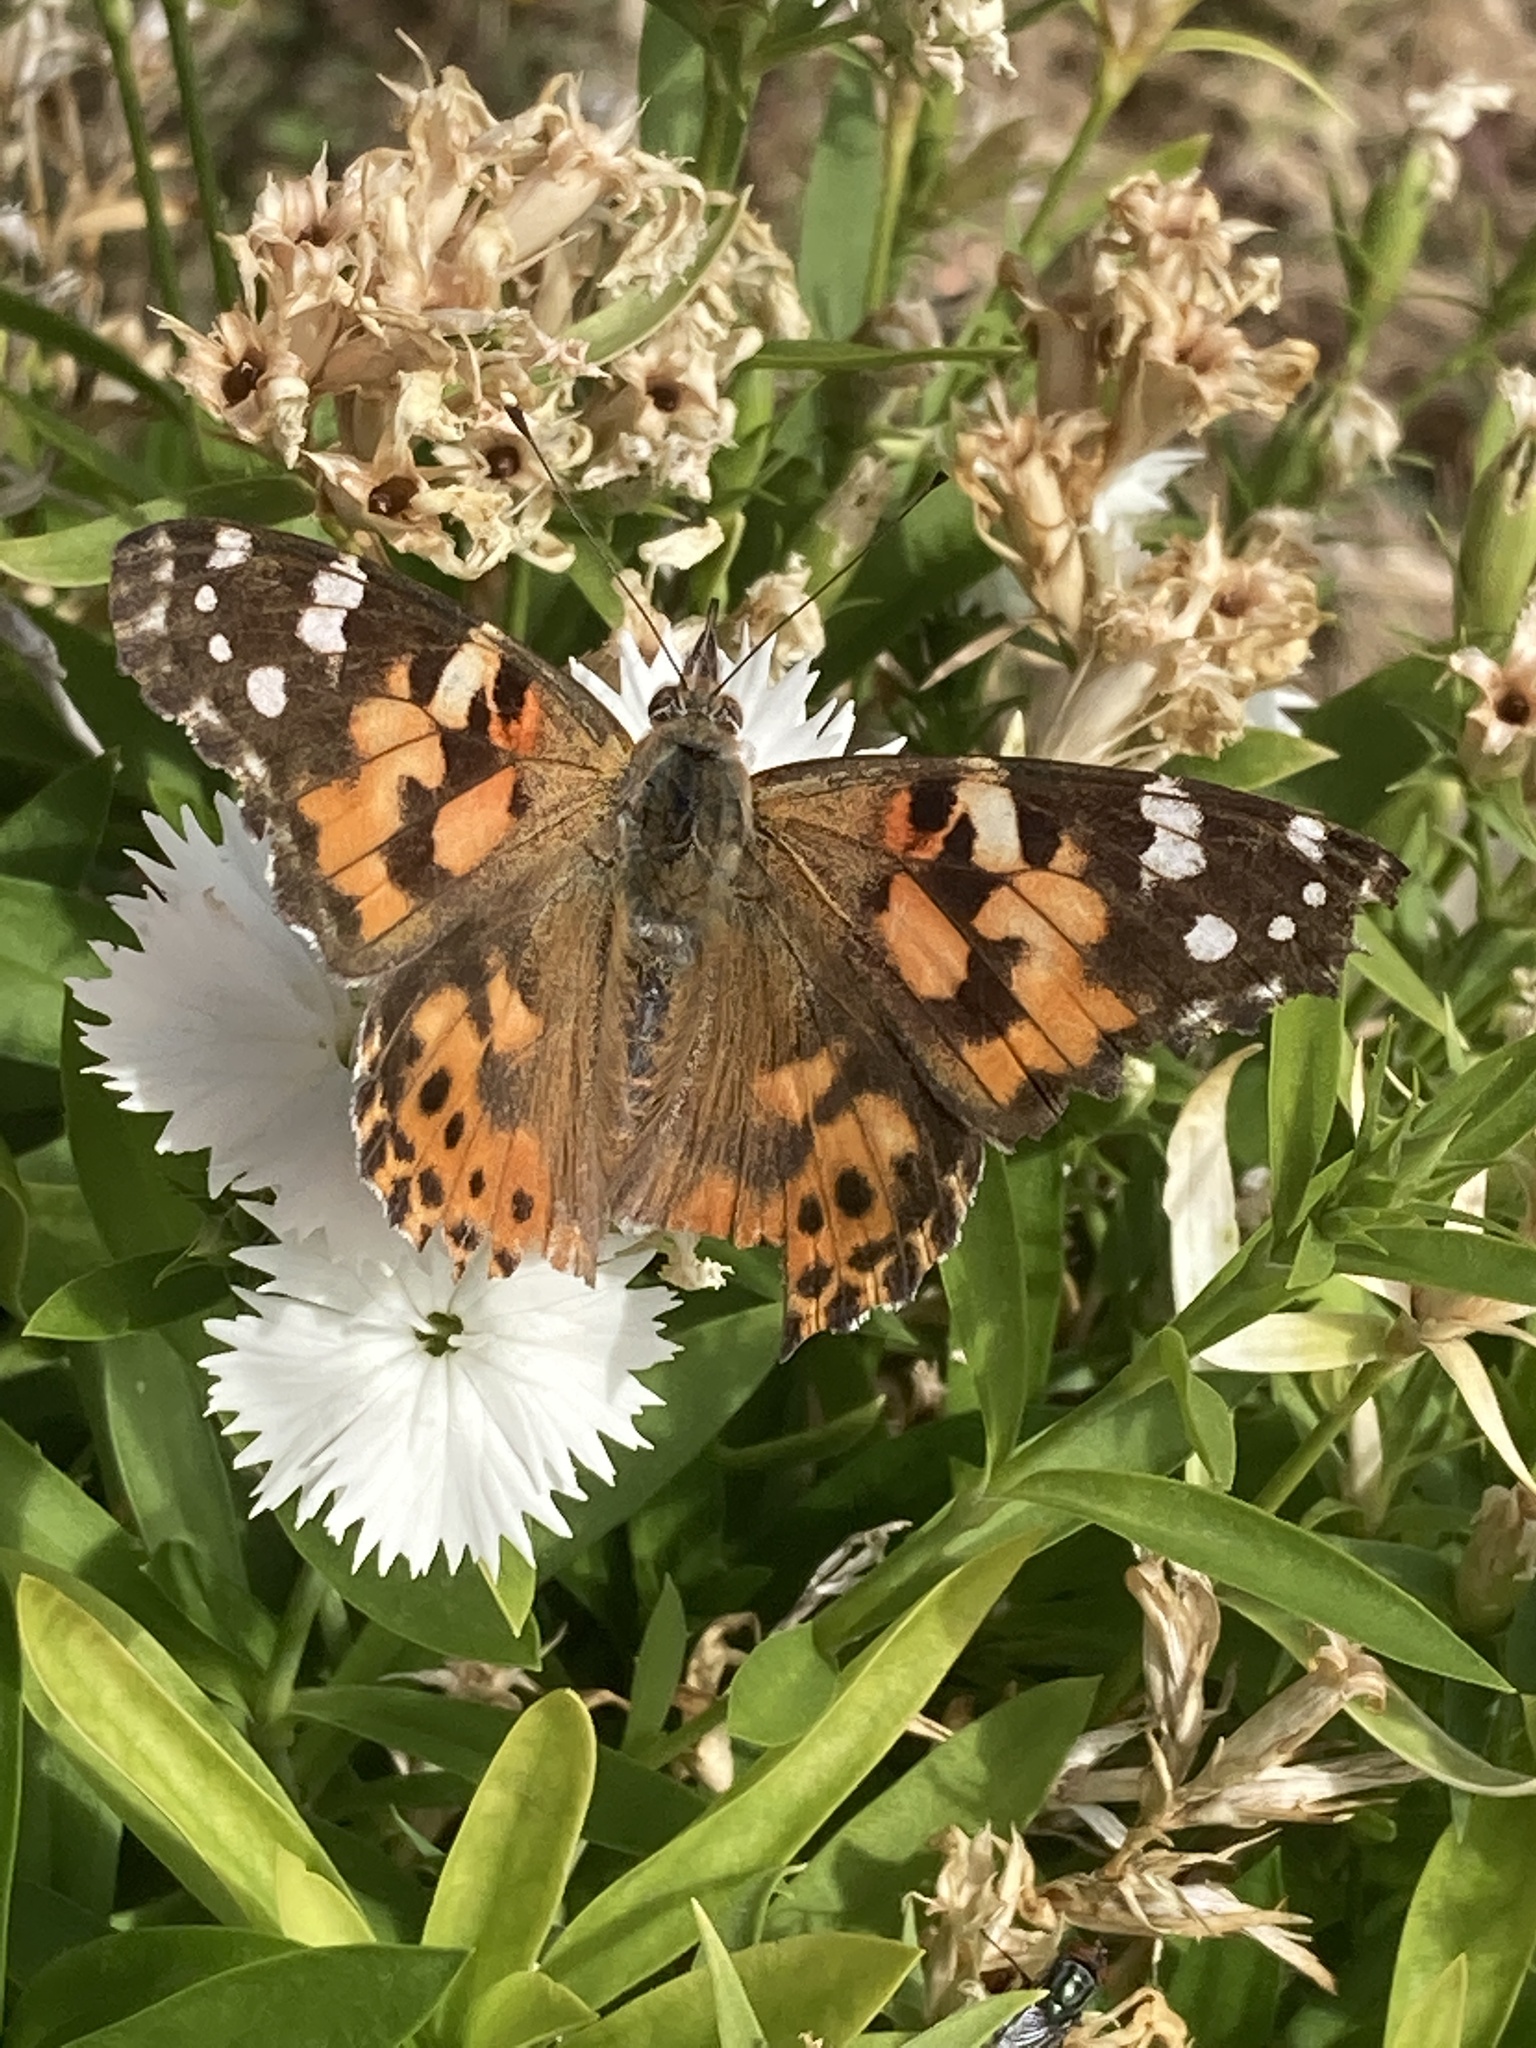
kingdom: Animalia
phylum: Arthropoda
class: Insecta
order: Lepidoptera
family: Nymphalidae
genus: Vanessa
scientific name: Vanessa cardui
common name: Painted lady
